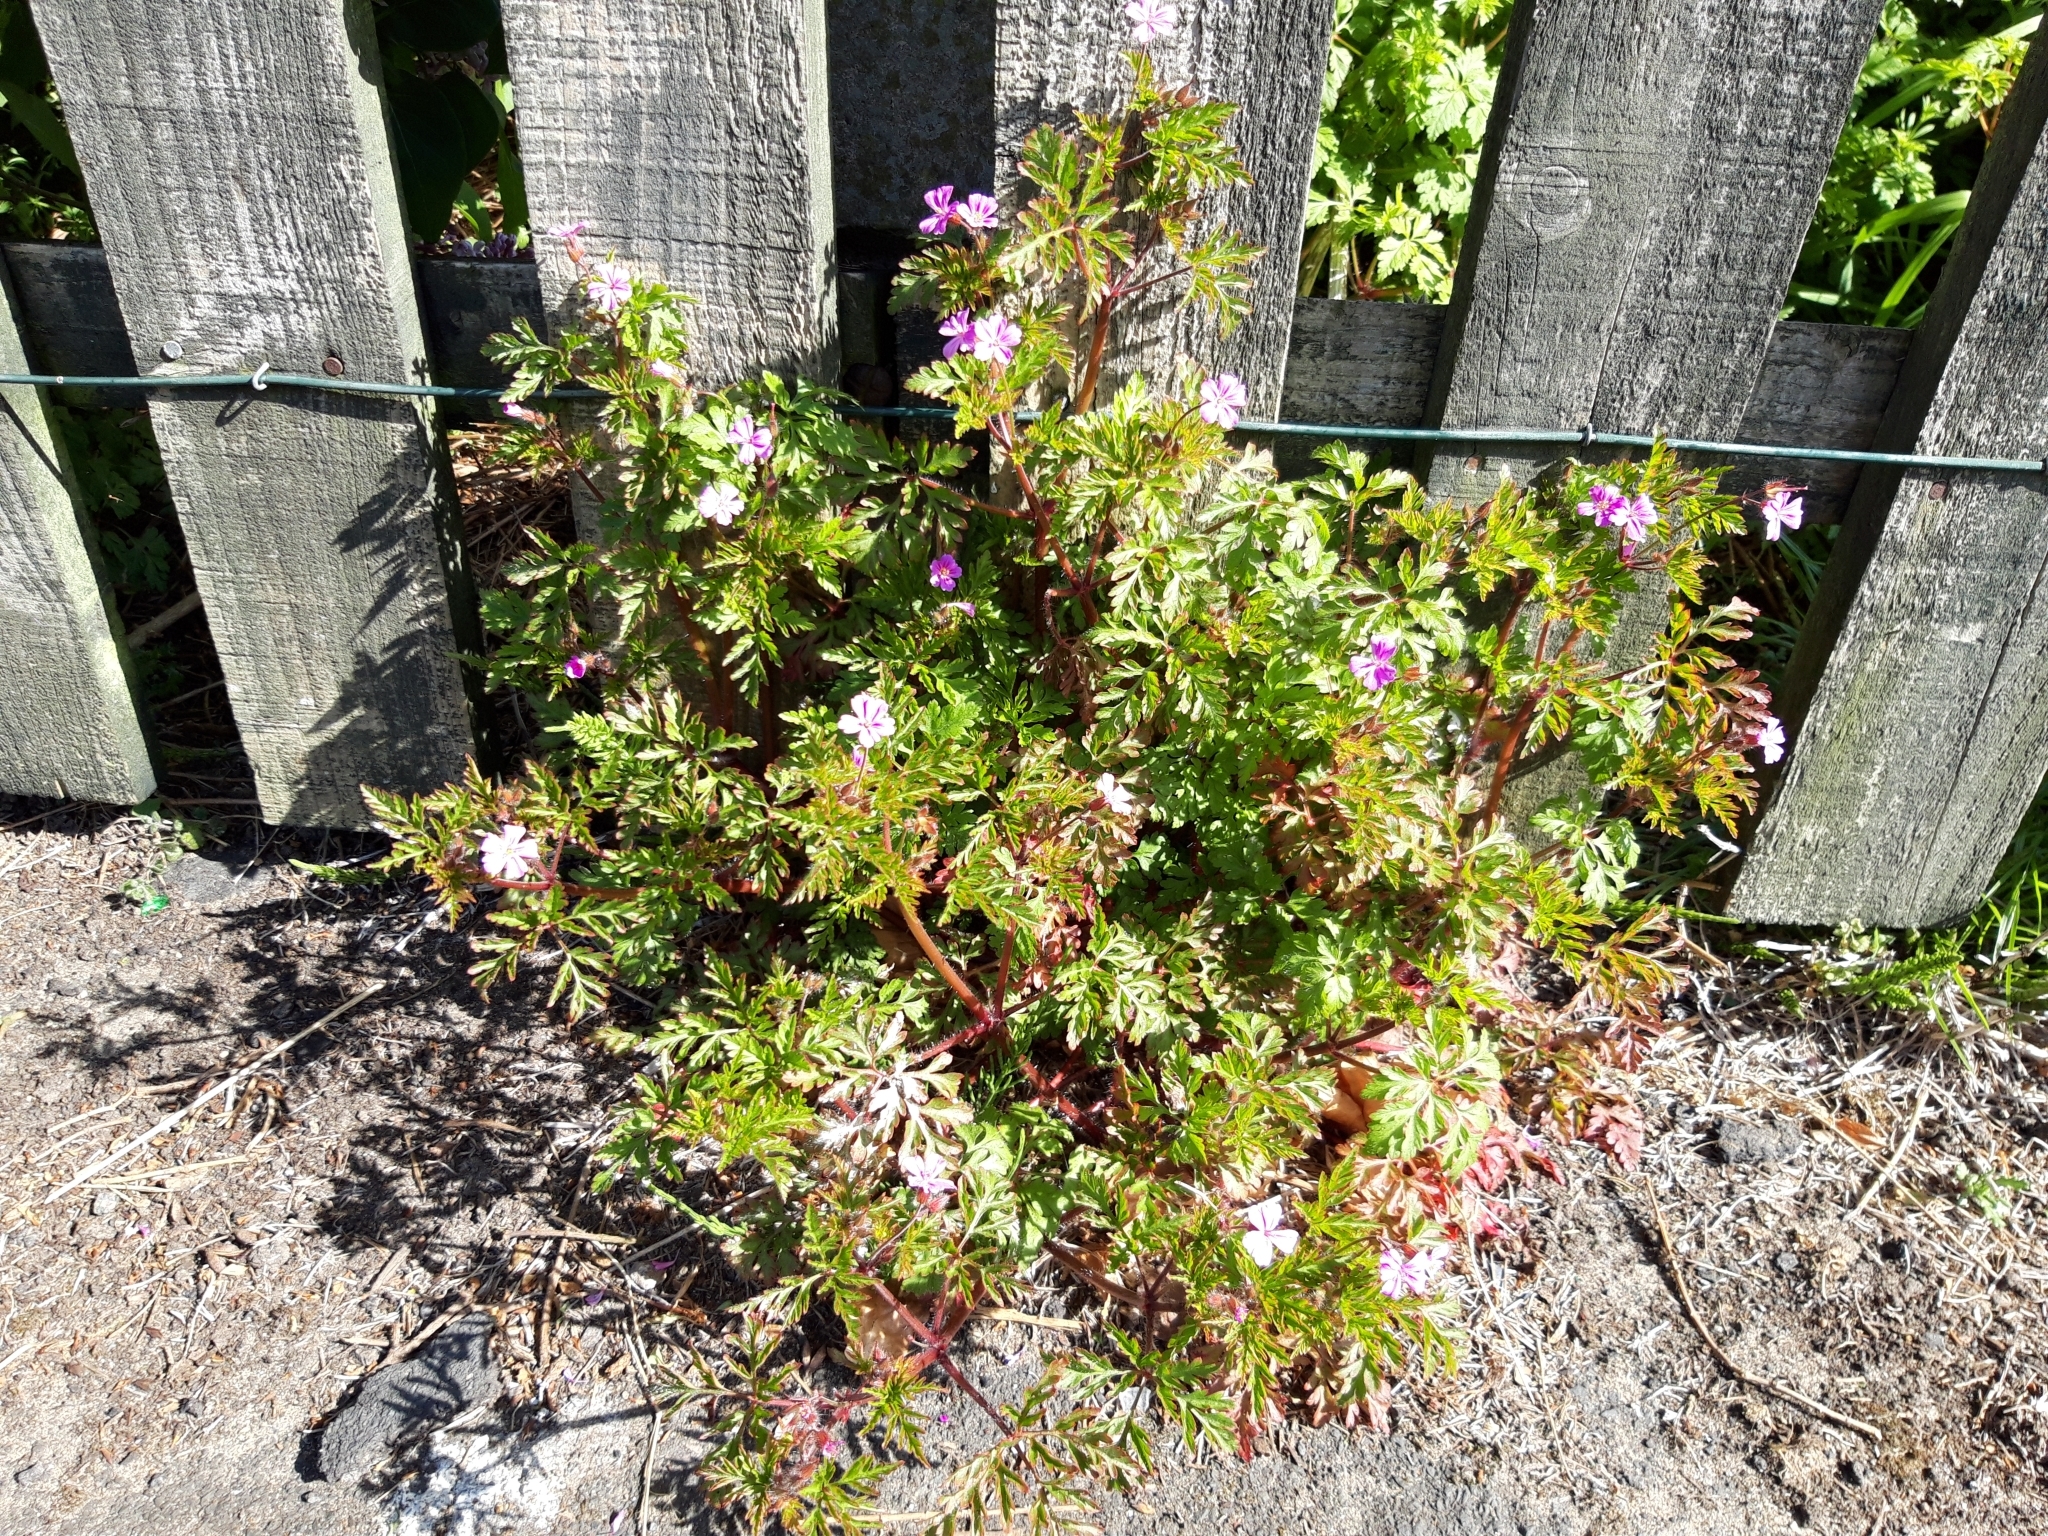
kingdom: Plantae
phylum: Tracheophyta
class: Magnoliopsida
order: Geraniales
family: Geraniaceae
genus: Geranium
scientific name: Geranium robertianum
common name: Herb-robert
